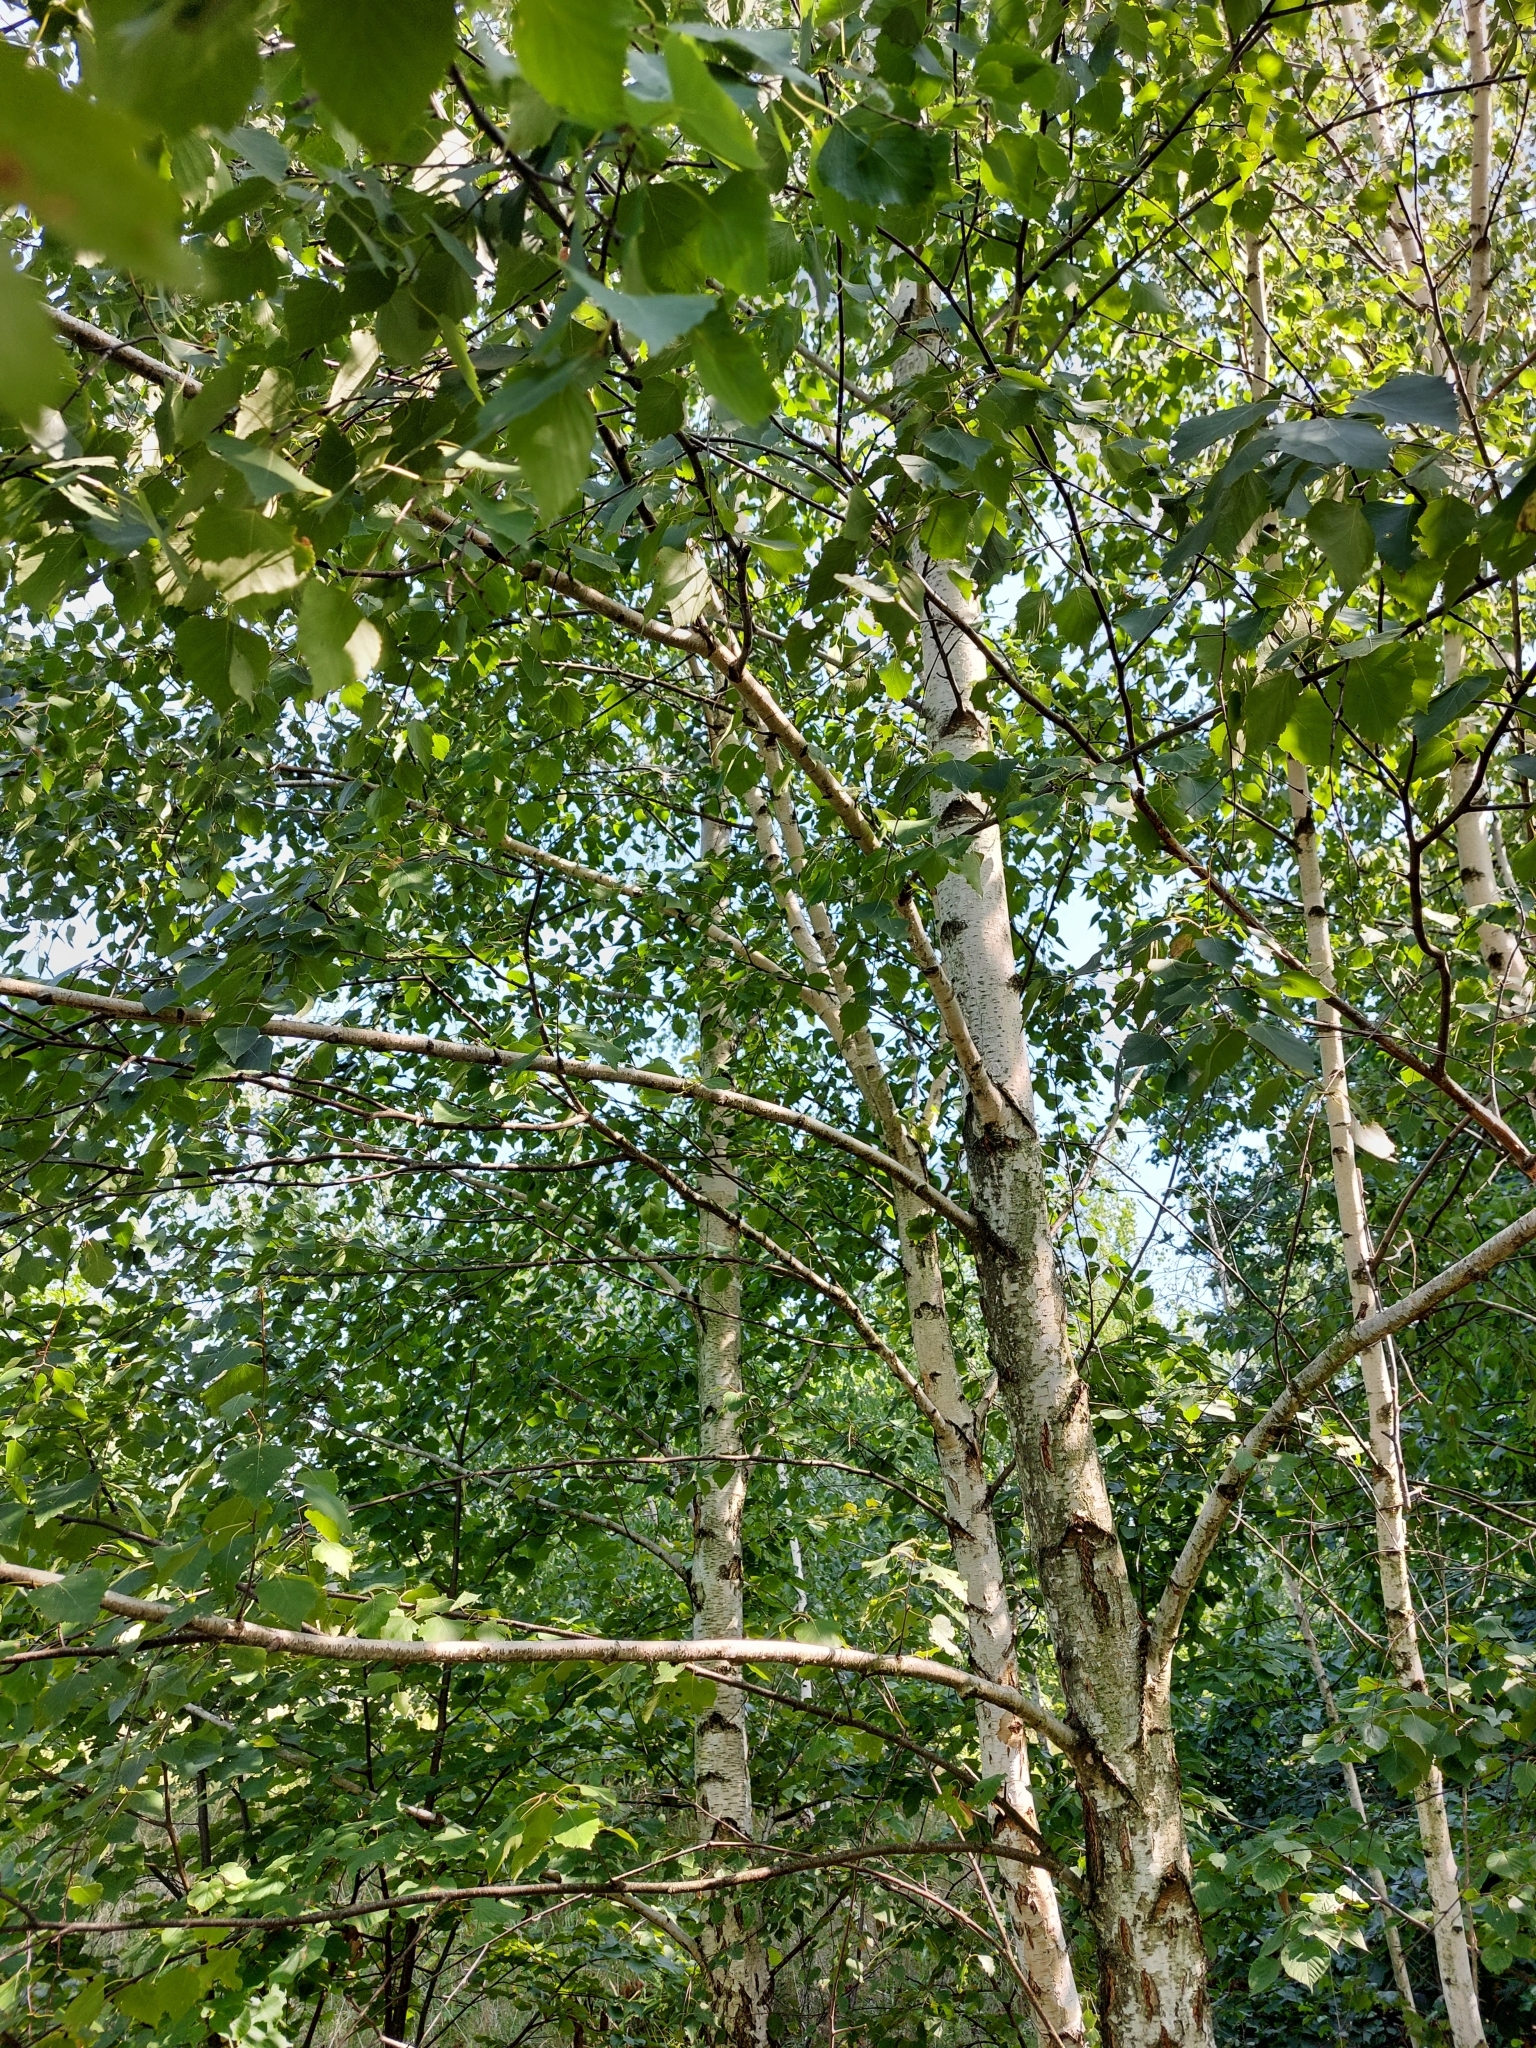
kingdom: Plantae
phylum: Tracheophyta
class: Magnoliopsida
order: Fagales
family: Betulaceae
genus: Betula
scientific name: Betula pendula
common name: Silver birch
